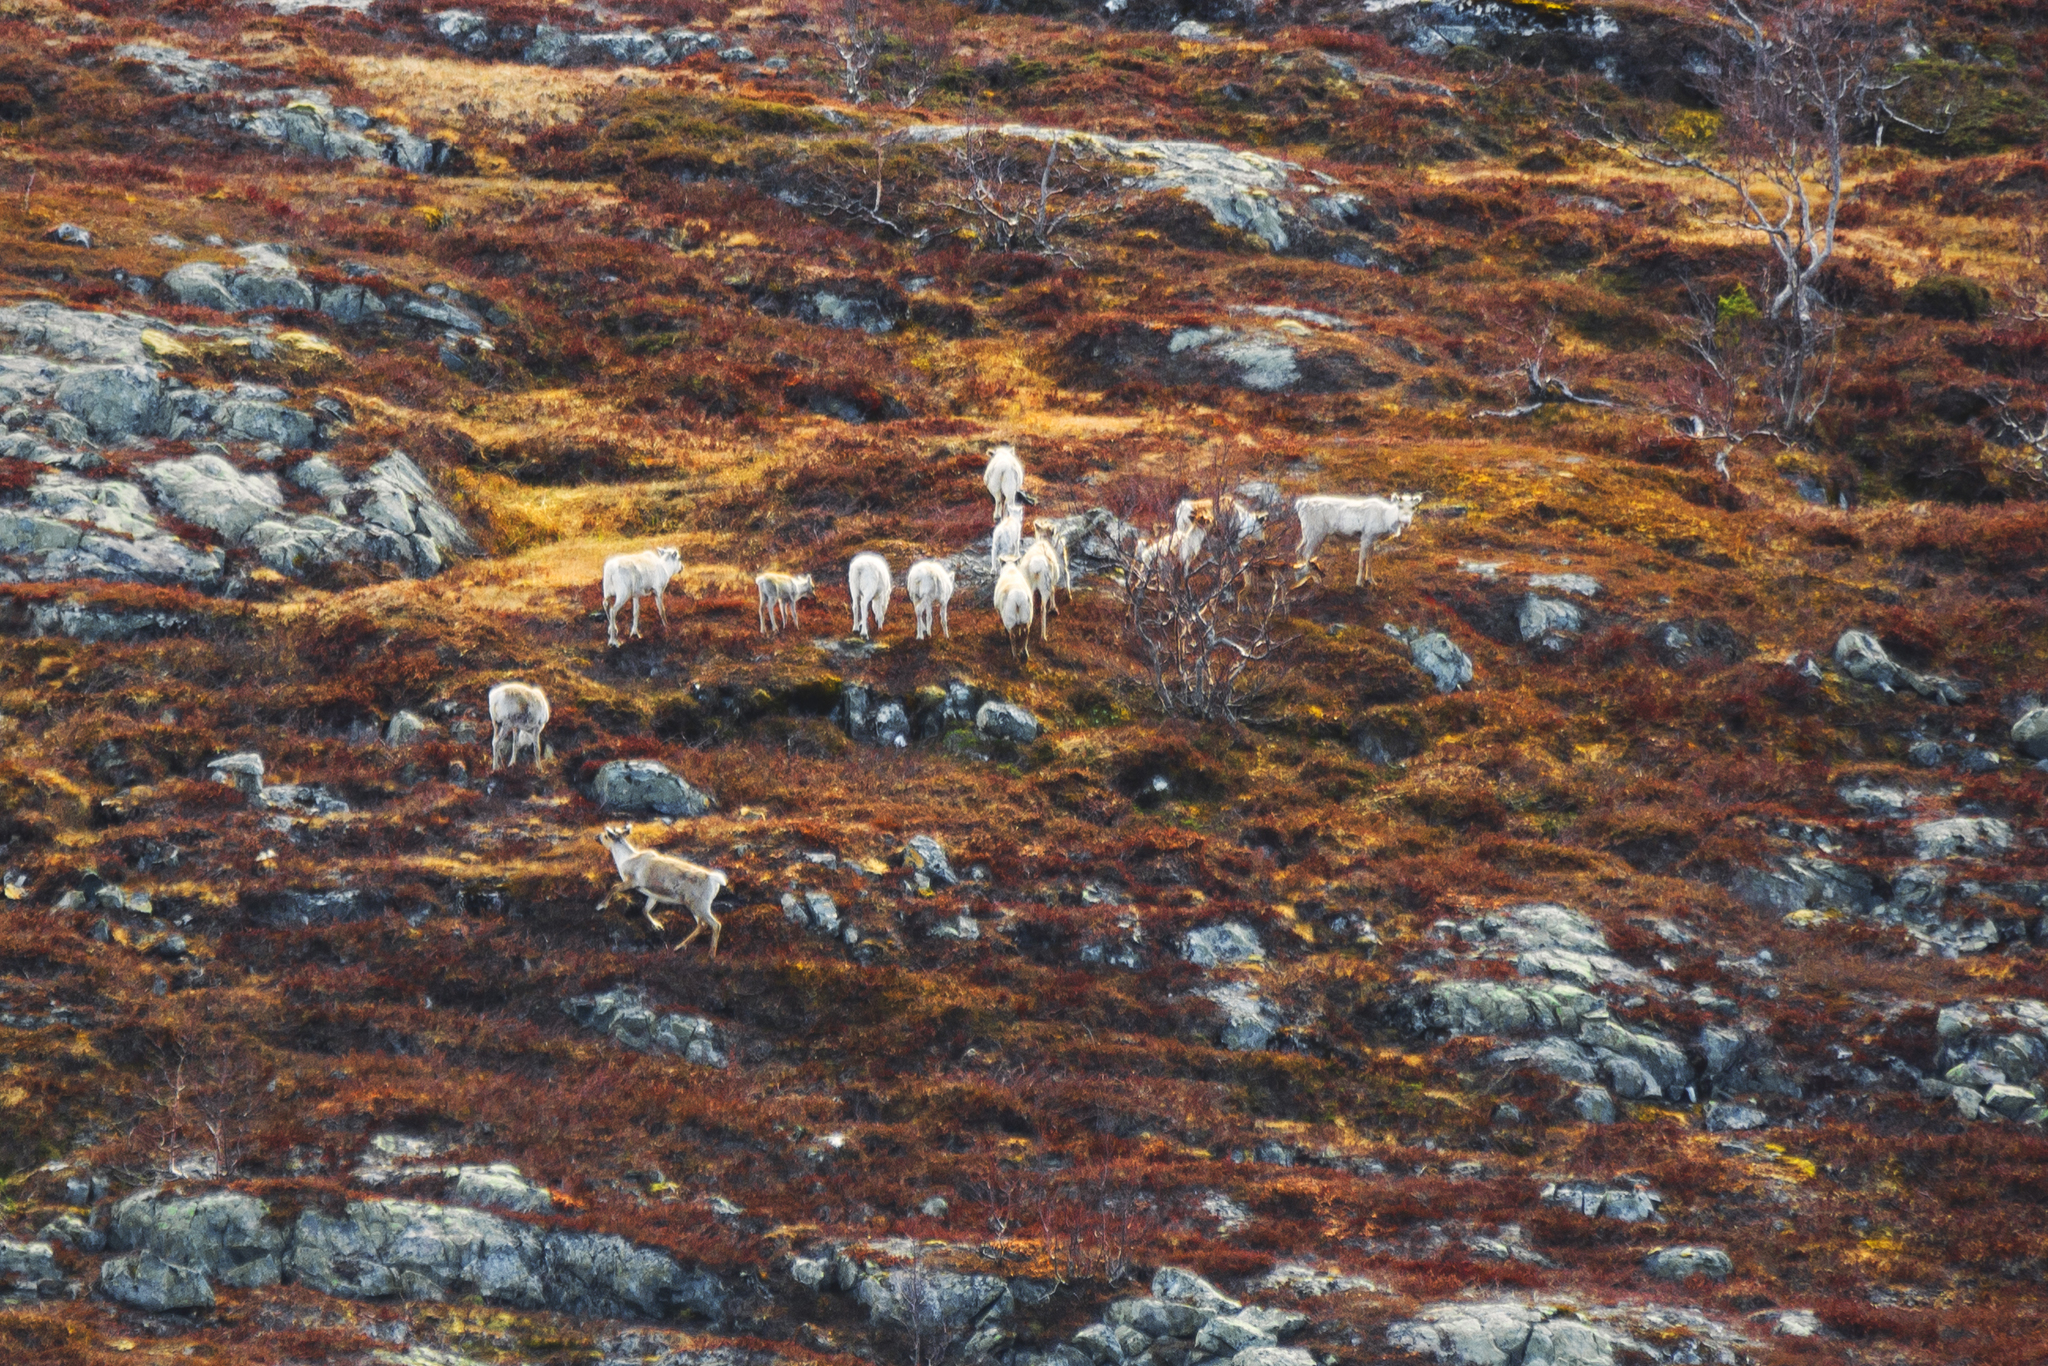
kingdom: Animalia
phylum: Chordata
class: Mammalia
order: Artiodactyla
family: Cervidae
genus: Rangifer
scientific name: Rangifer tarandus
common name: Reindeer
